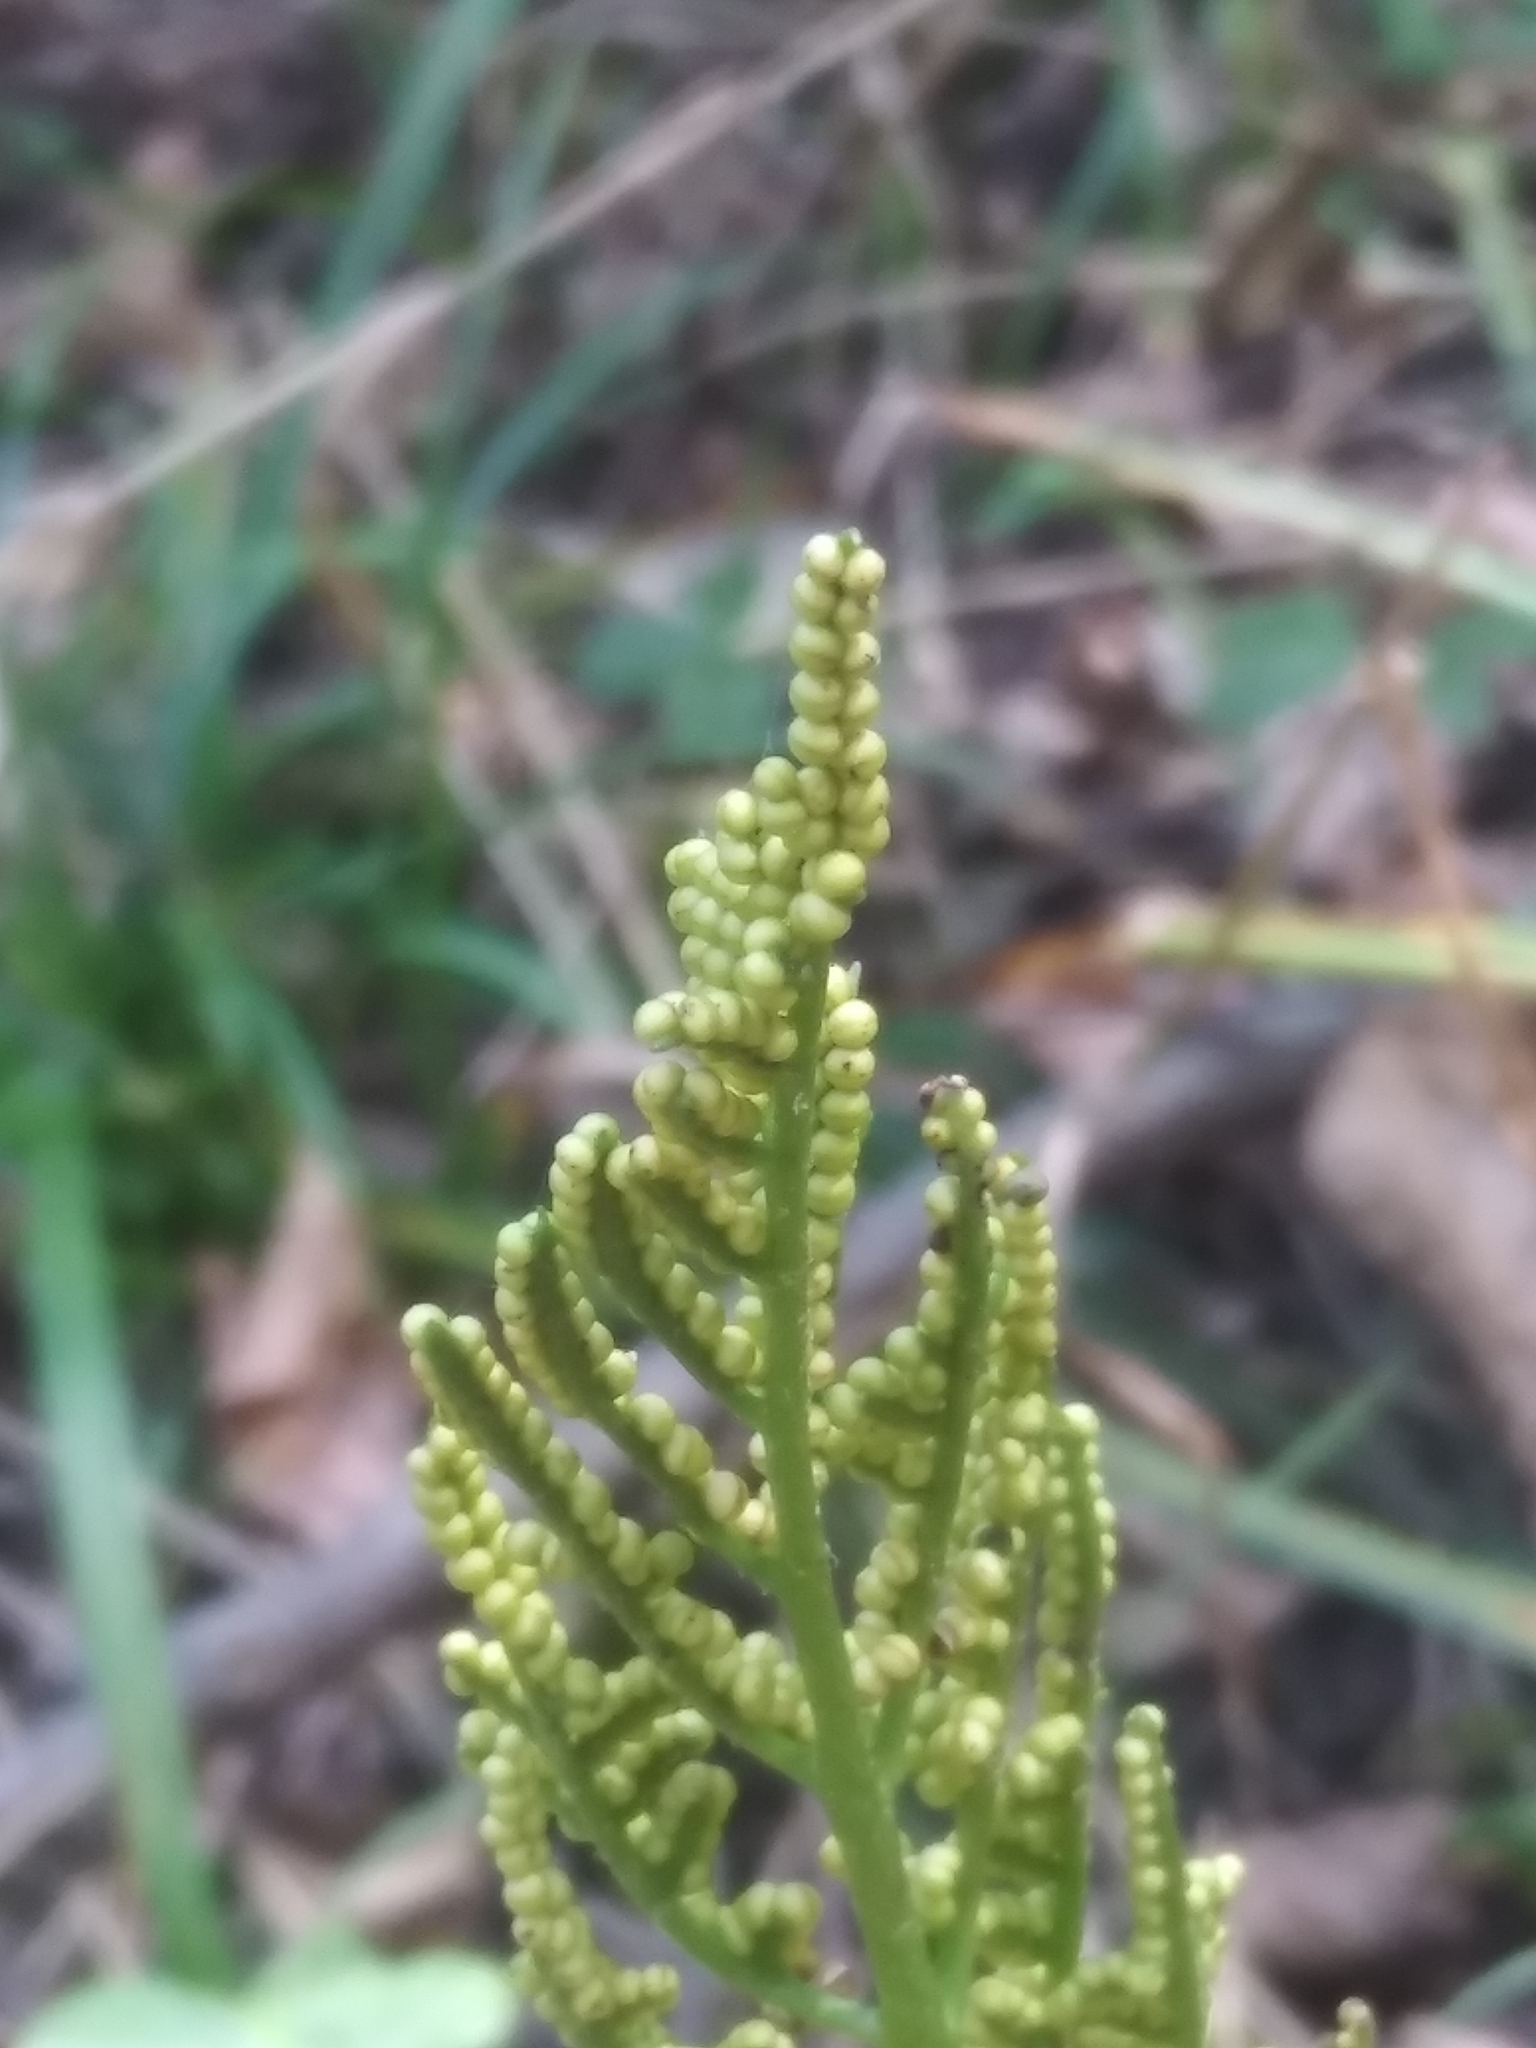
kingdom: Plantae
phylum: Tracheophyta
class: Polypodiopsida
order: Ophioglossales
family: Ophioglossaceae
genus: Sceptridium
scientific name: Sceptridium dissectum
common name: Cut-leaved grapefern
